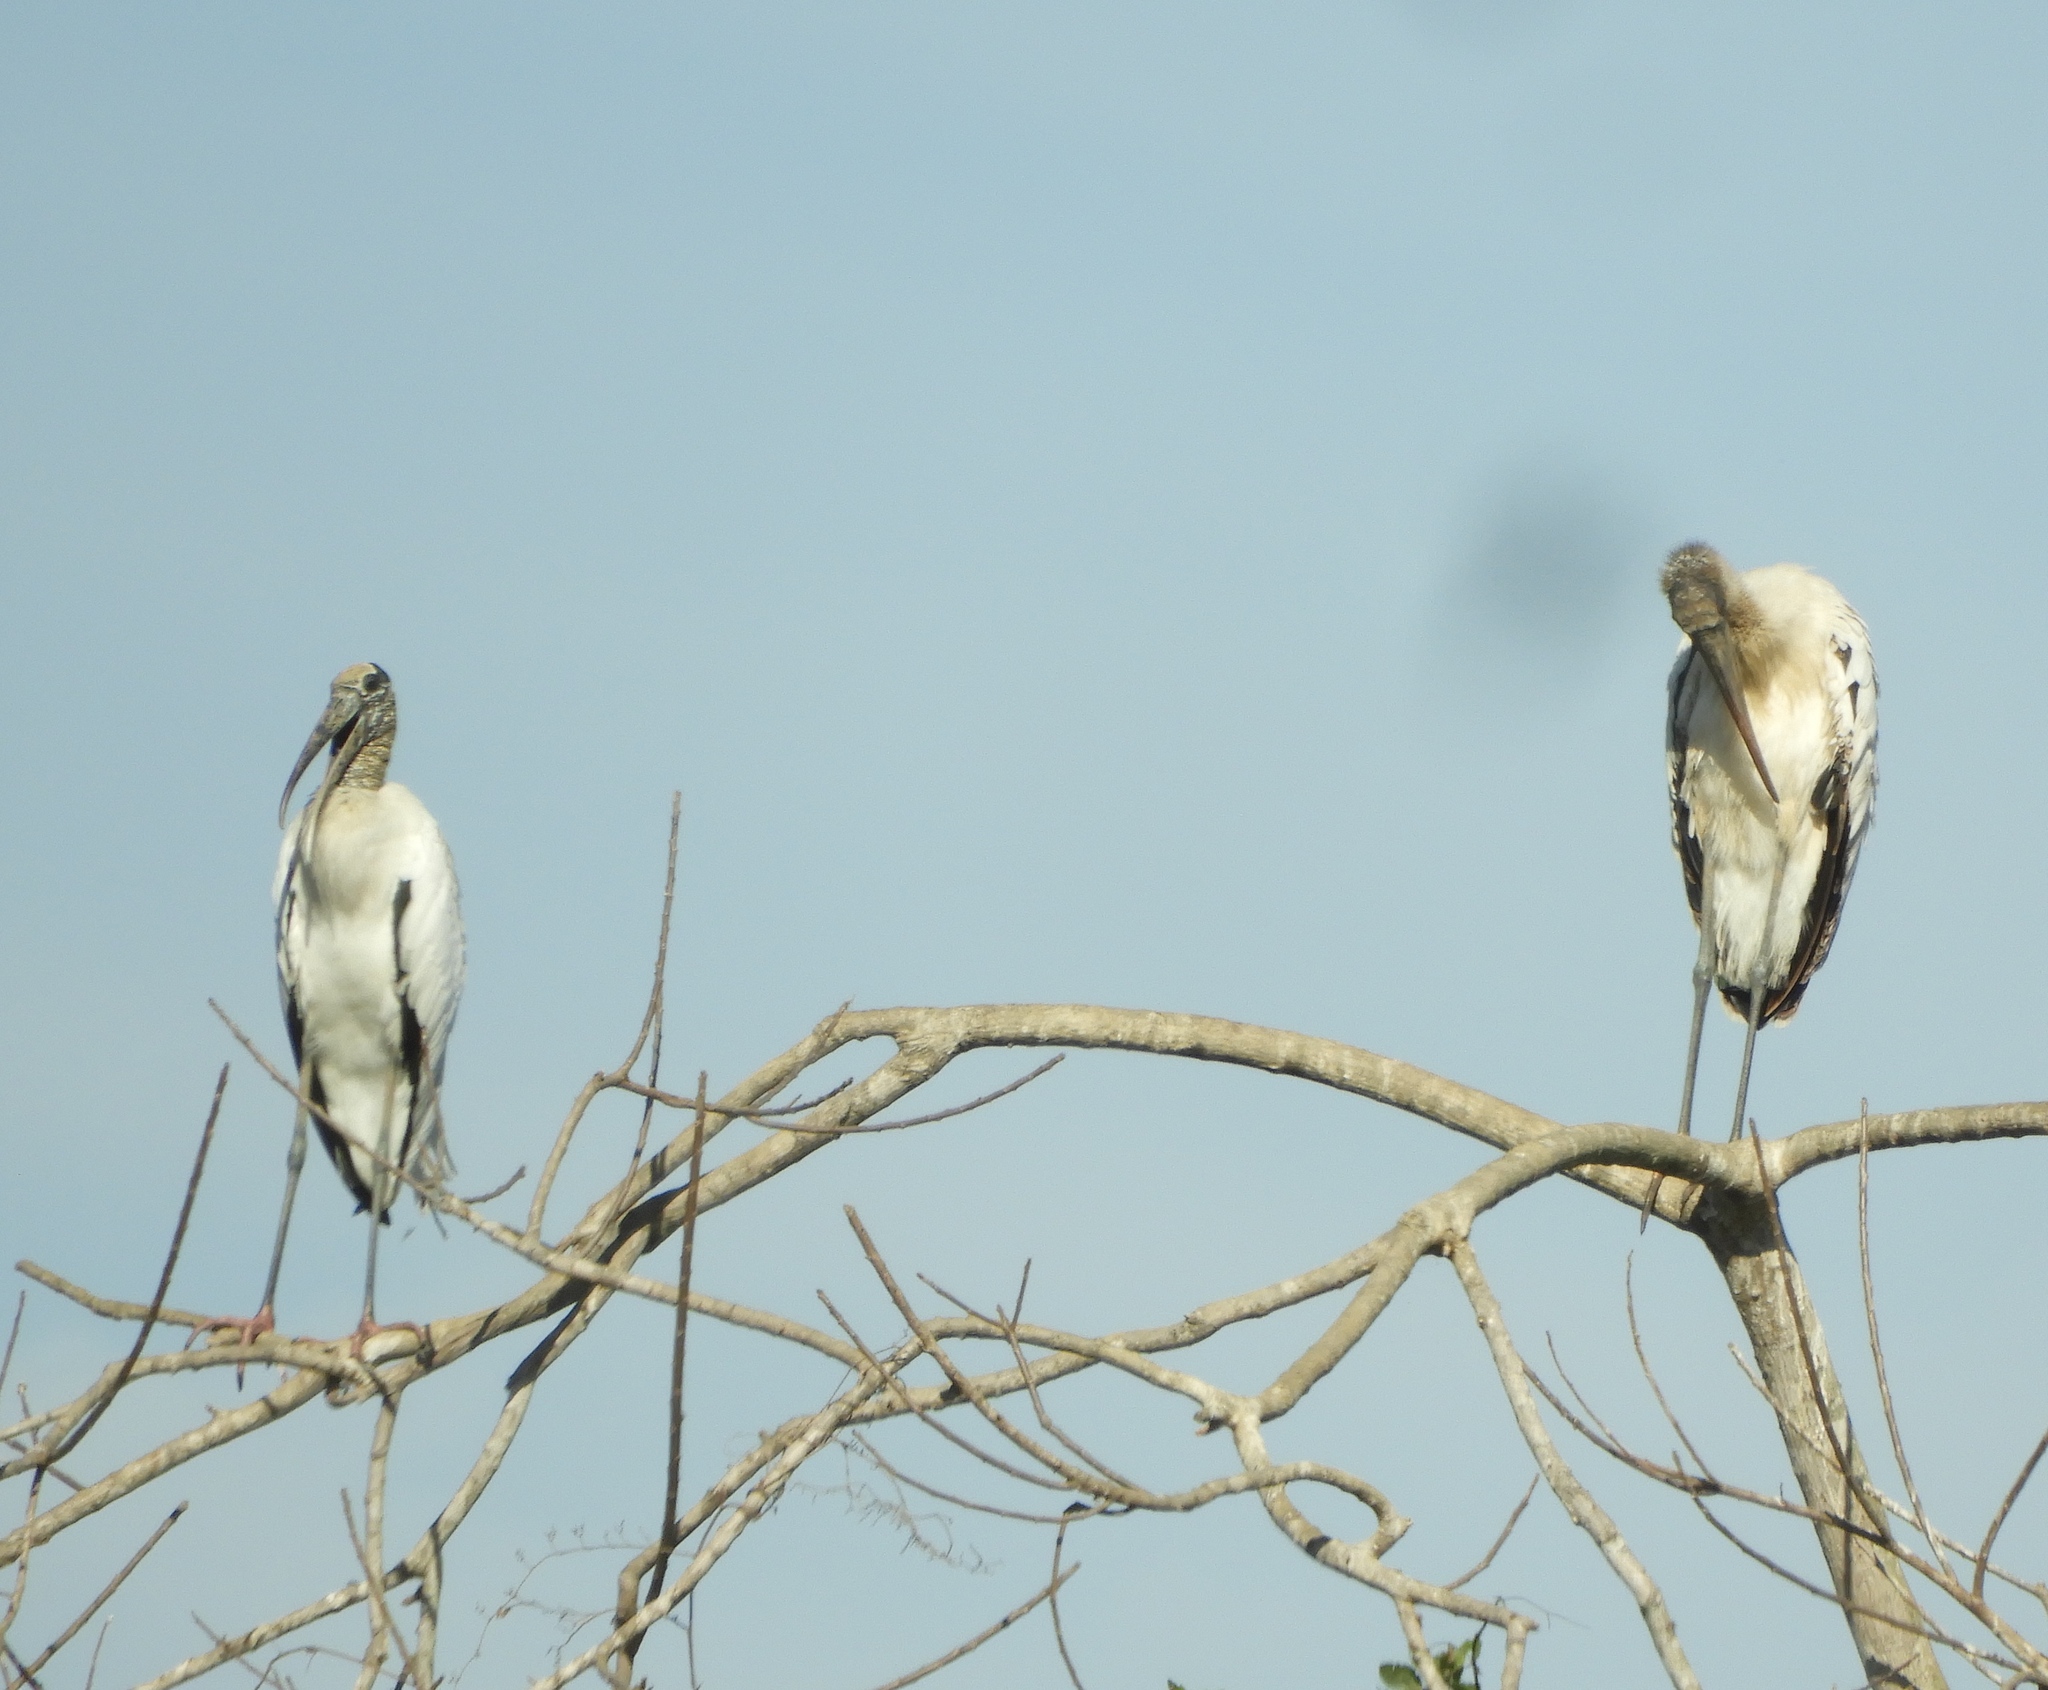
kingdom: Animalia
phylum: Chordata
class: Aves
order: Ciconiiformes
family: Ciconiidae
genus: Mycteria
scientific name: Mycteria americana
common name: Wood stork
